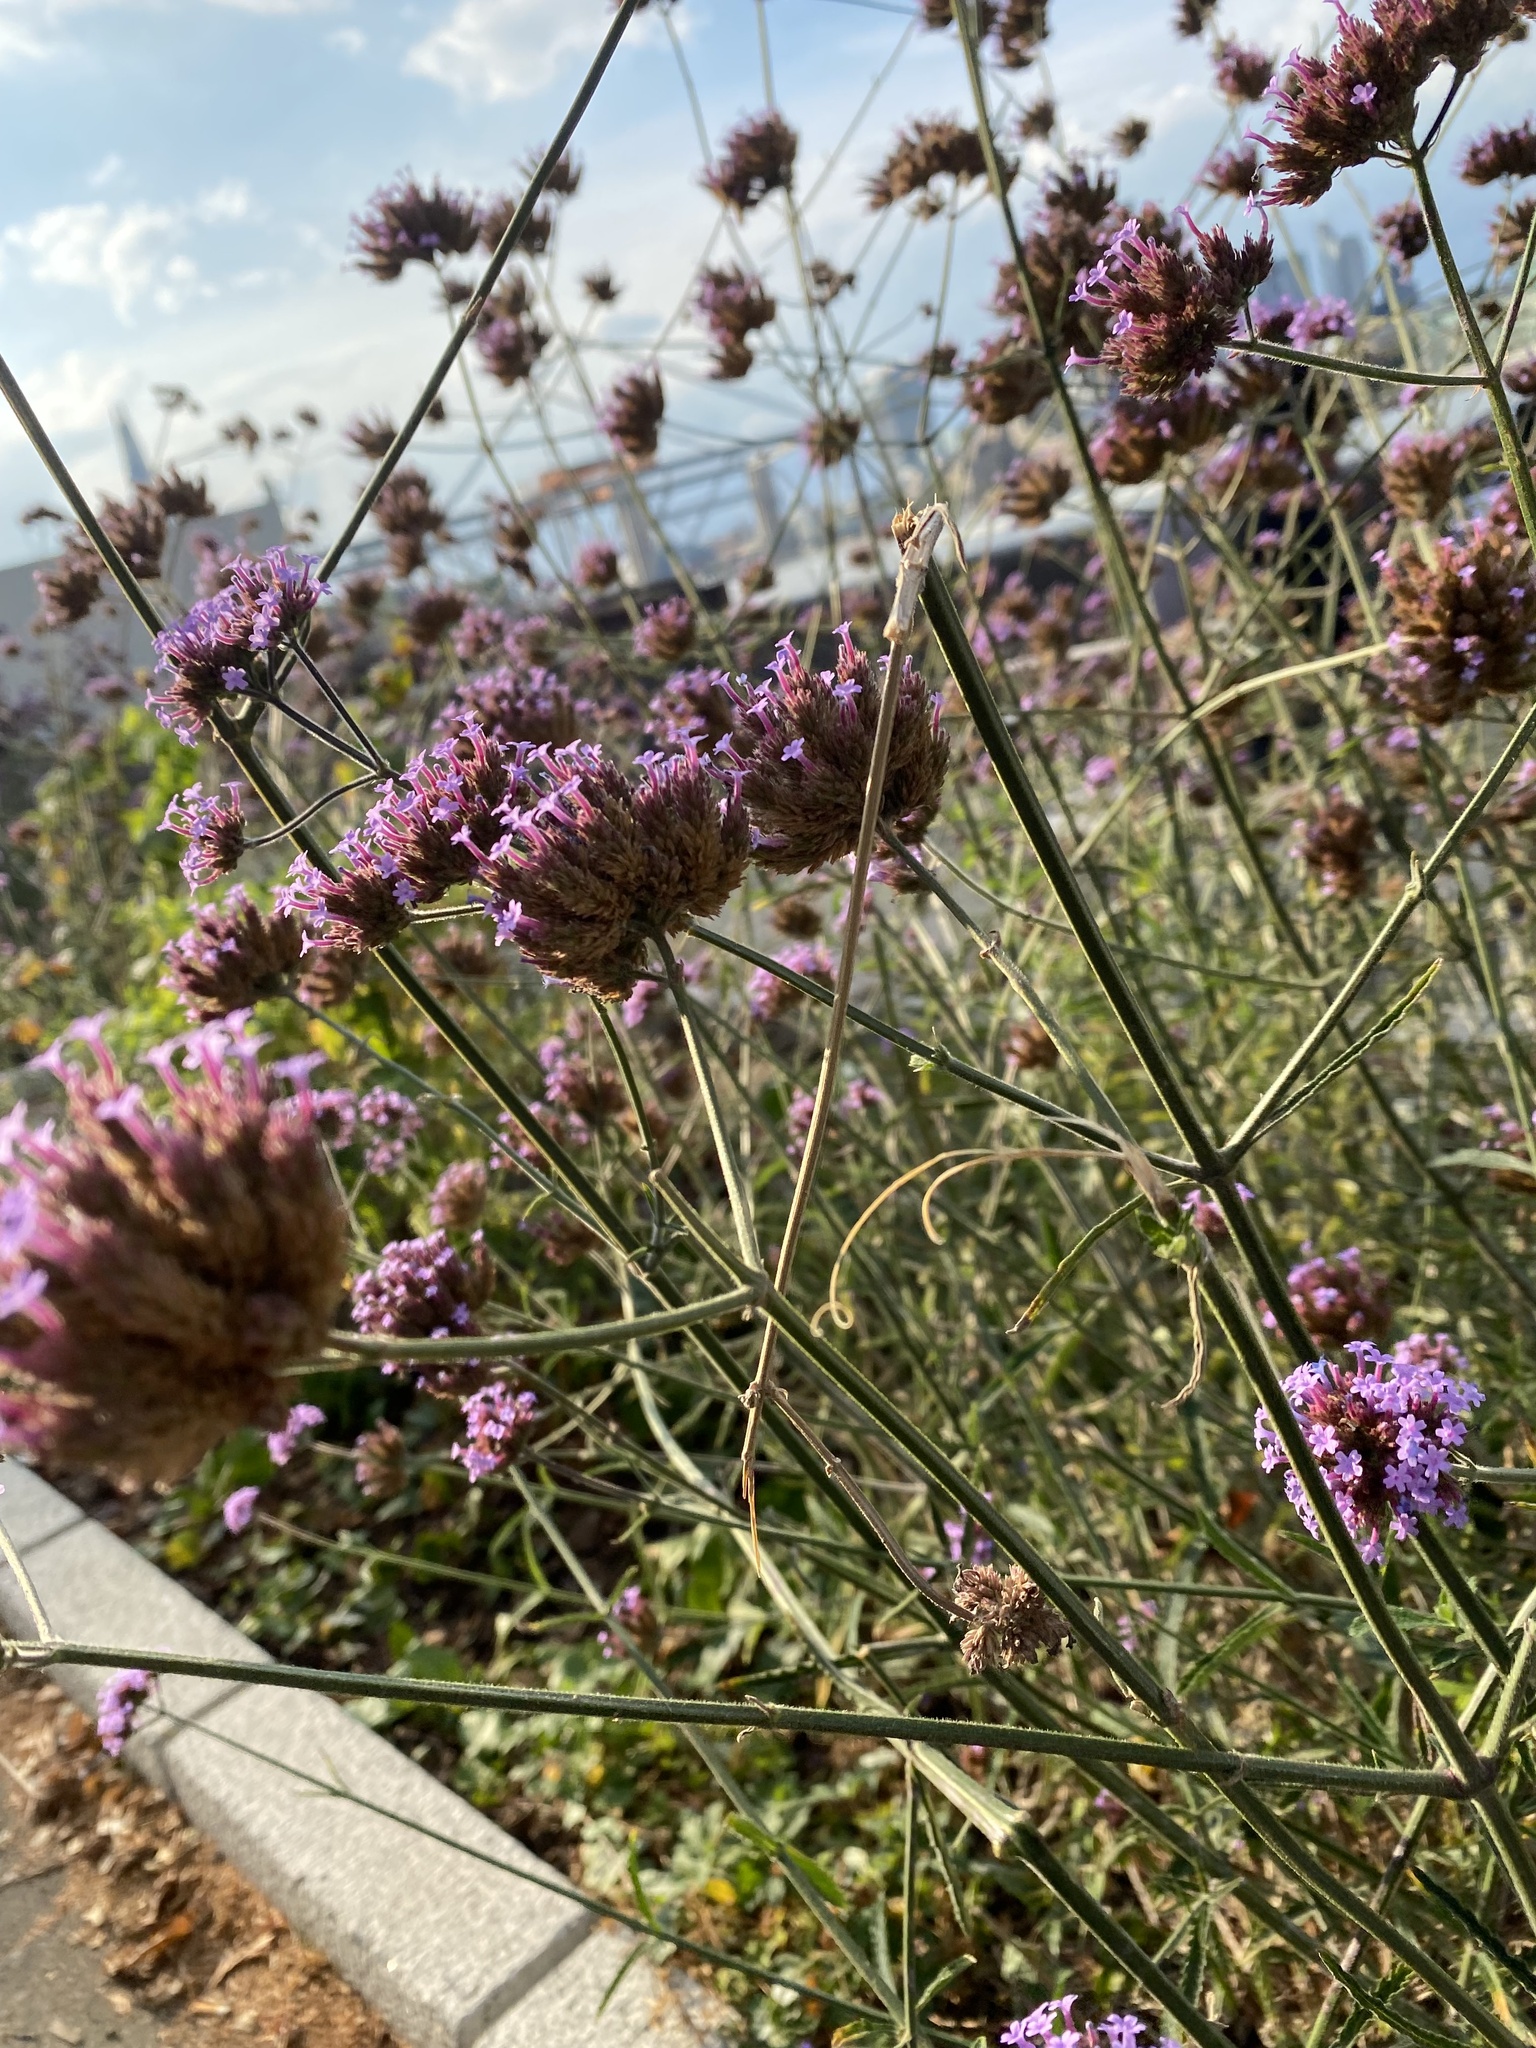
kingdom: Plantae
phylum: Tracheophyta
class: Magnoliopsida
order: Lamiales
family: Verbenaceae
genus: Verbena
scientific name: Verbena bonariensis
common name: Purpletop vervain
